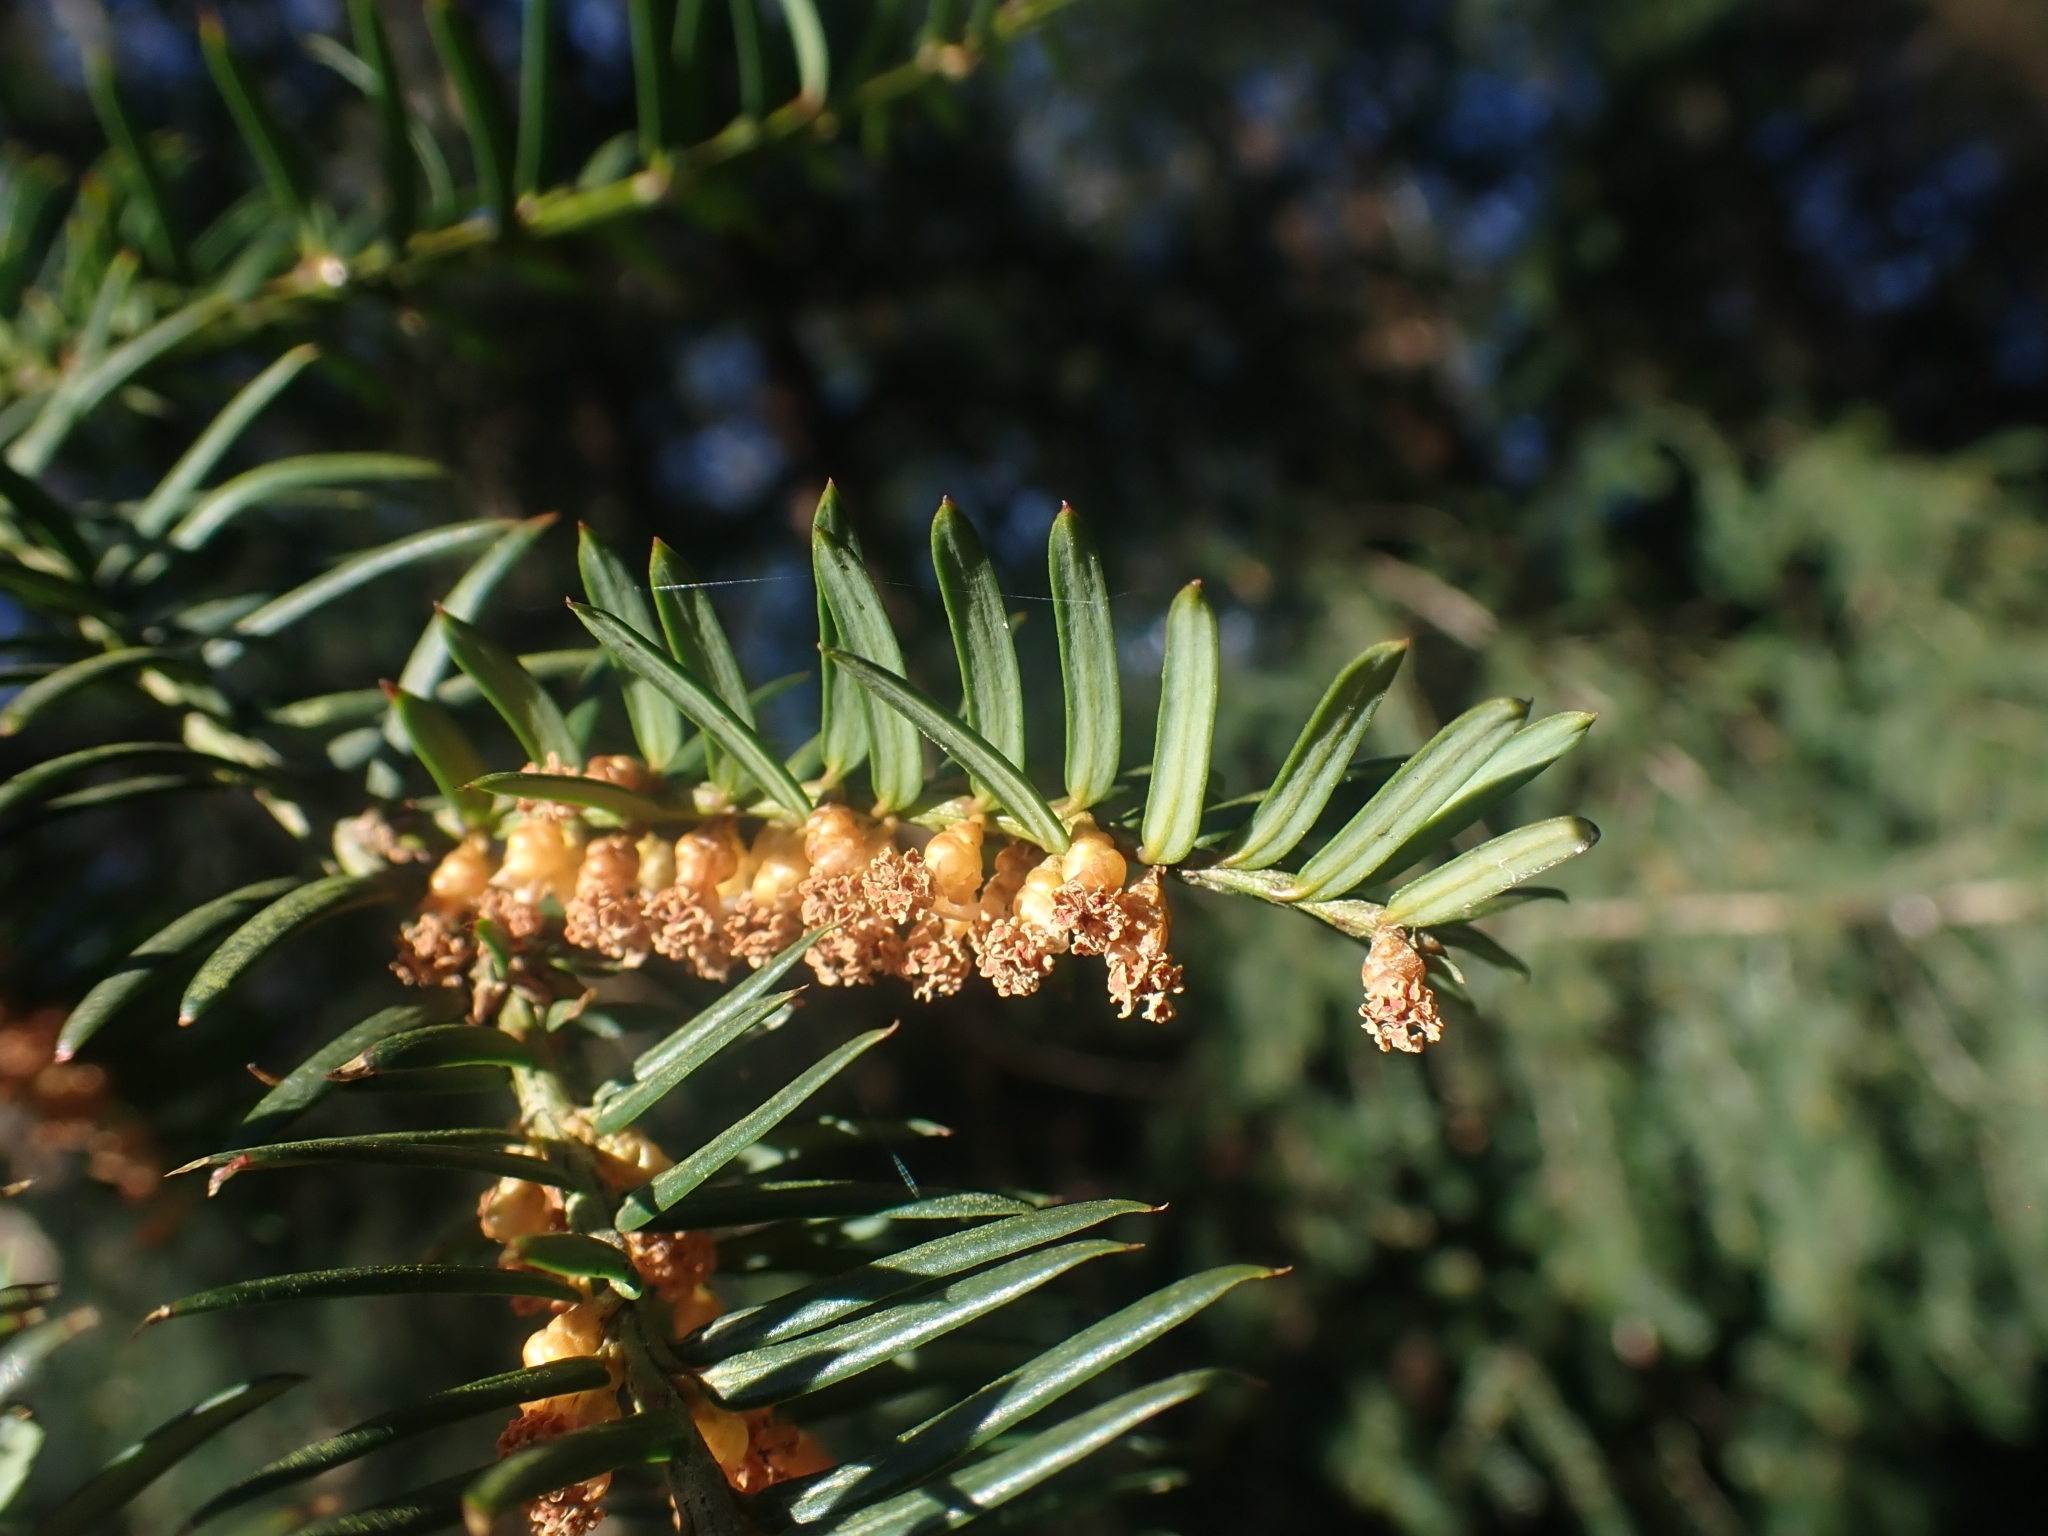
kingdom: Plantae
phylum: Tracheophyta
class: Pinopsida
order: Pinales
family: Taxaceae
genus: Taxus
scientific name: Taxus baccata
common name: Yew
